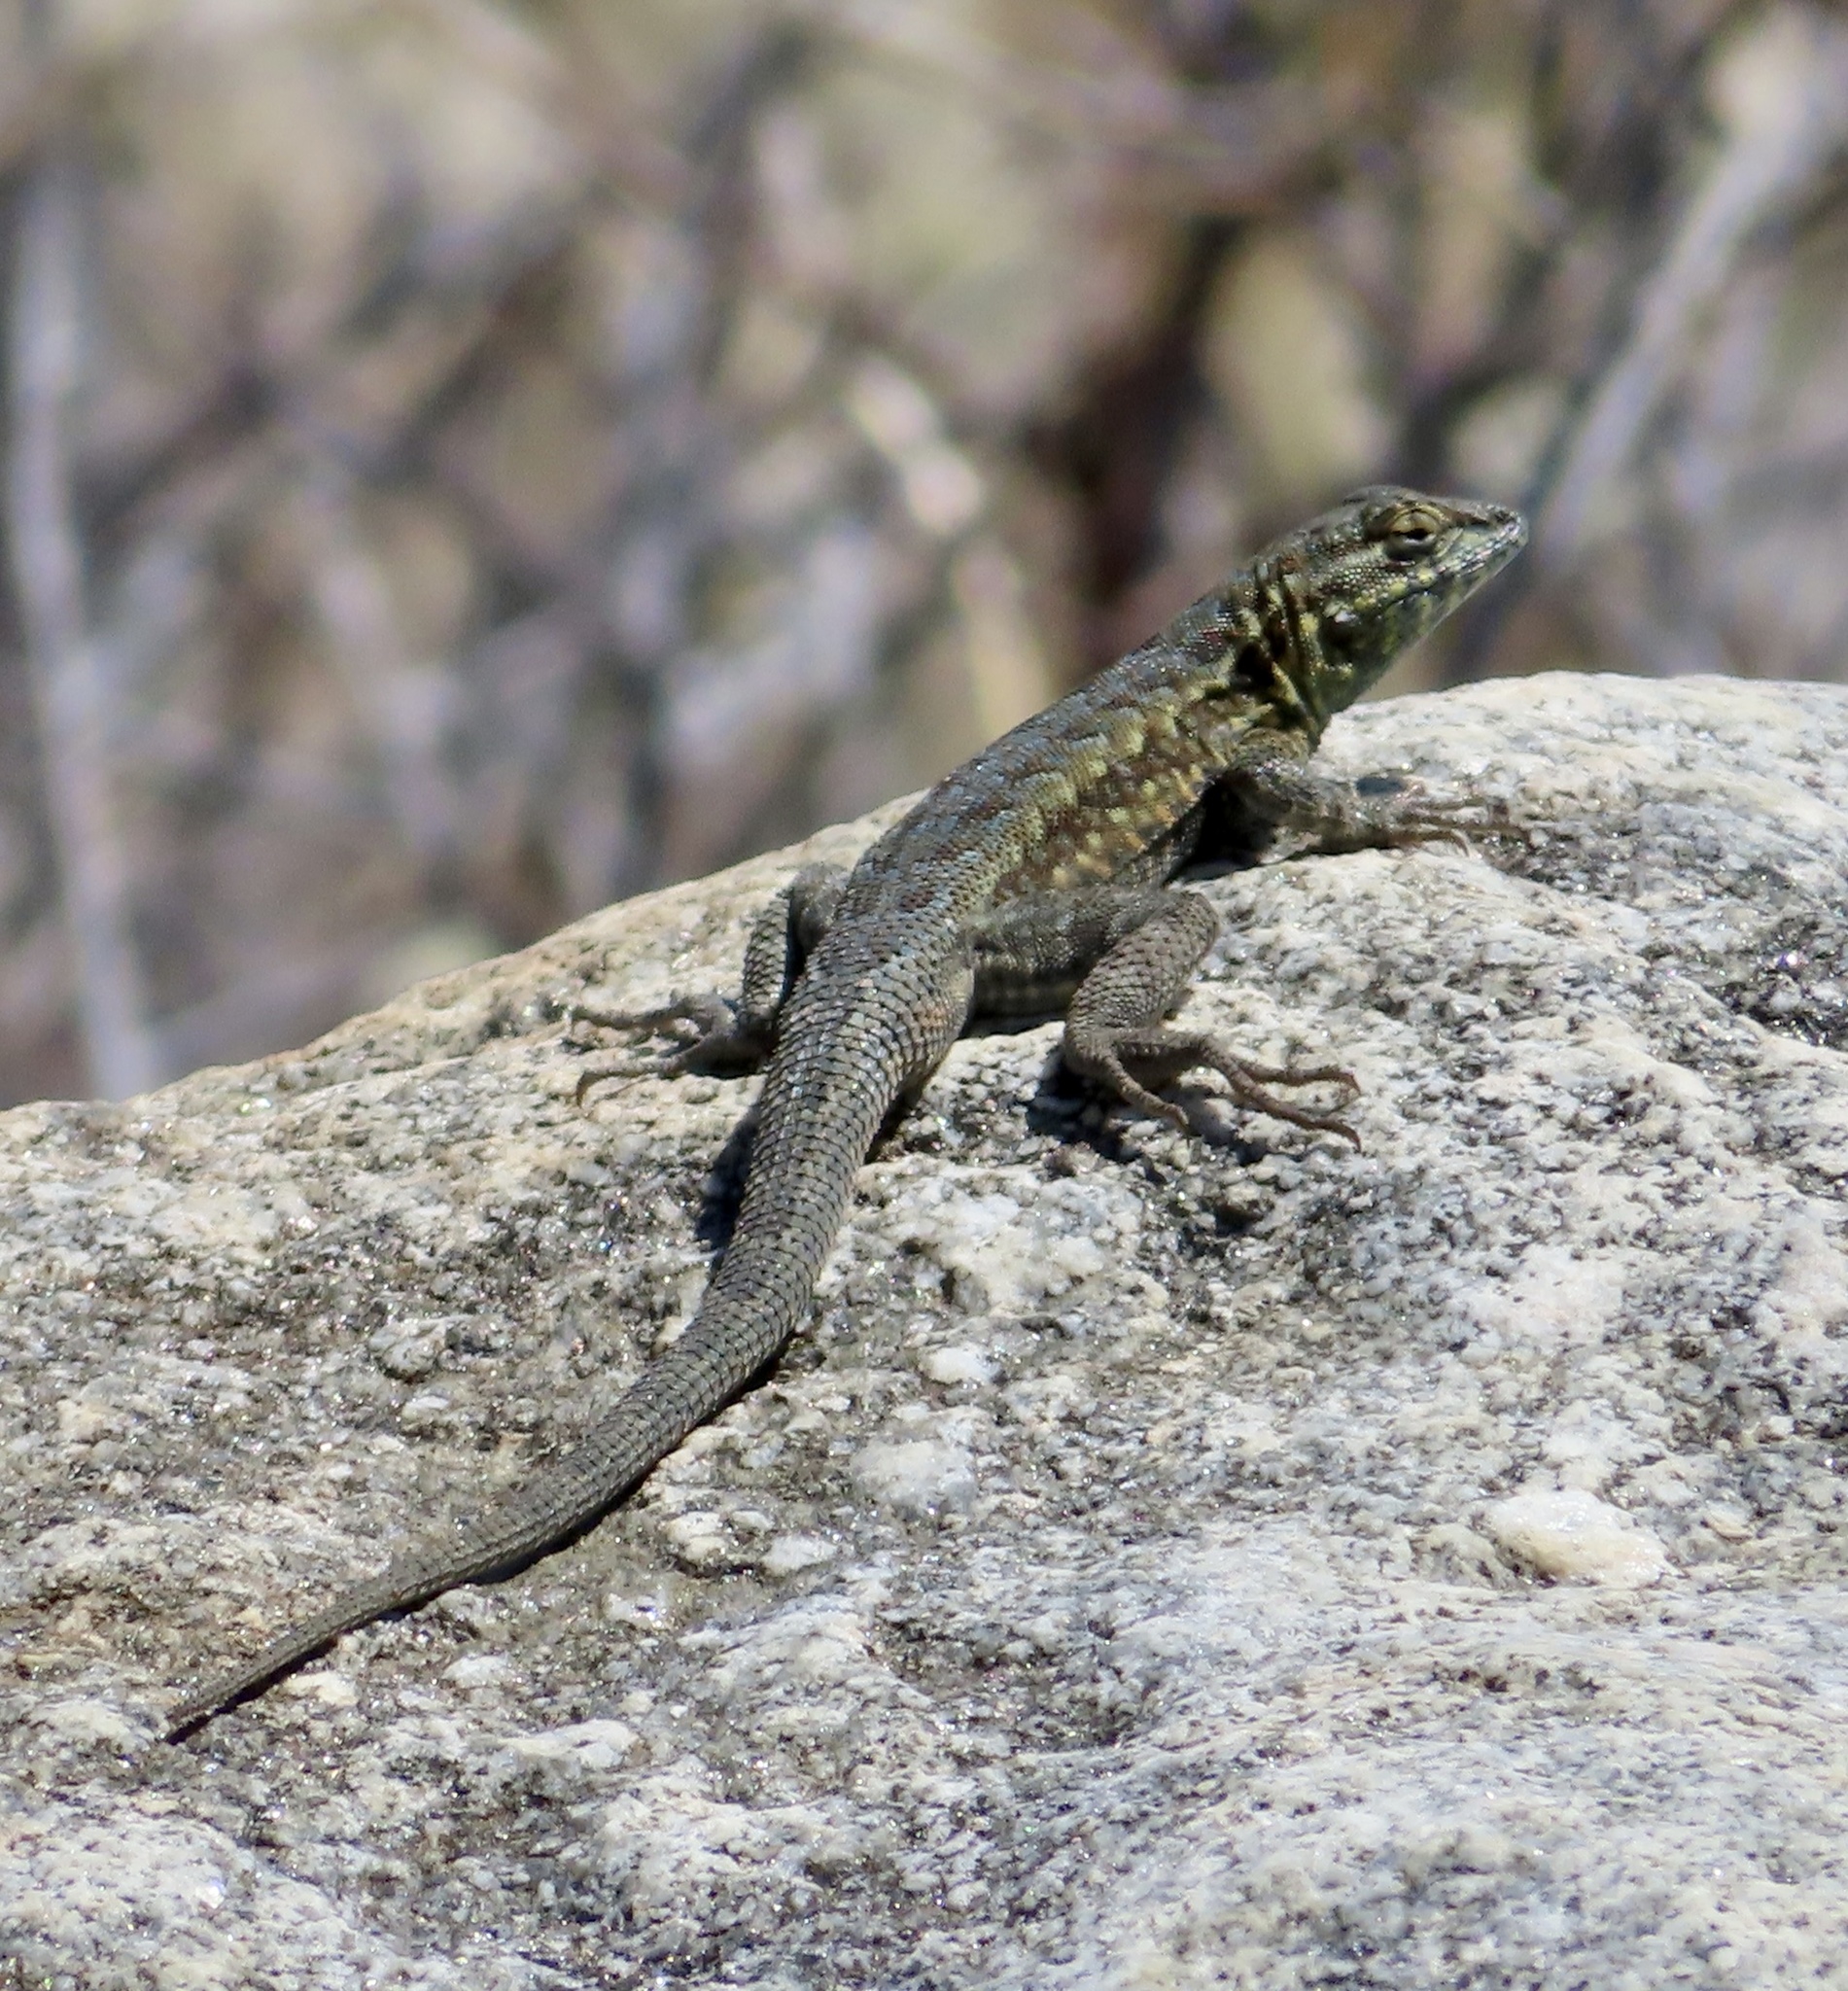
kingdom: Animalia
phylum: Chordata
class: Squamata
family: Phrynosomatidae
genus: Uta
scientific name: Uta stansburiana
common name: Side-blotched lizard
